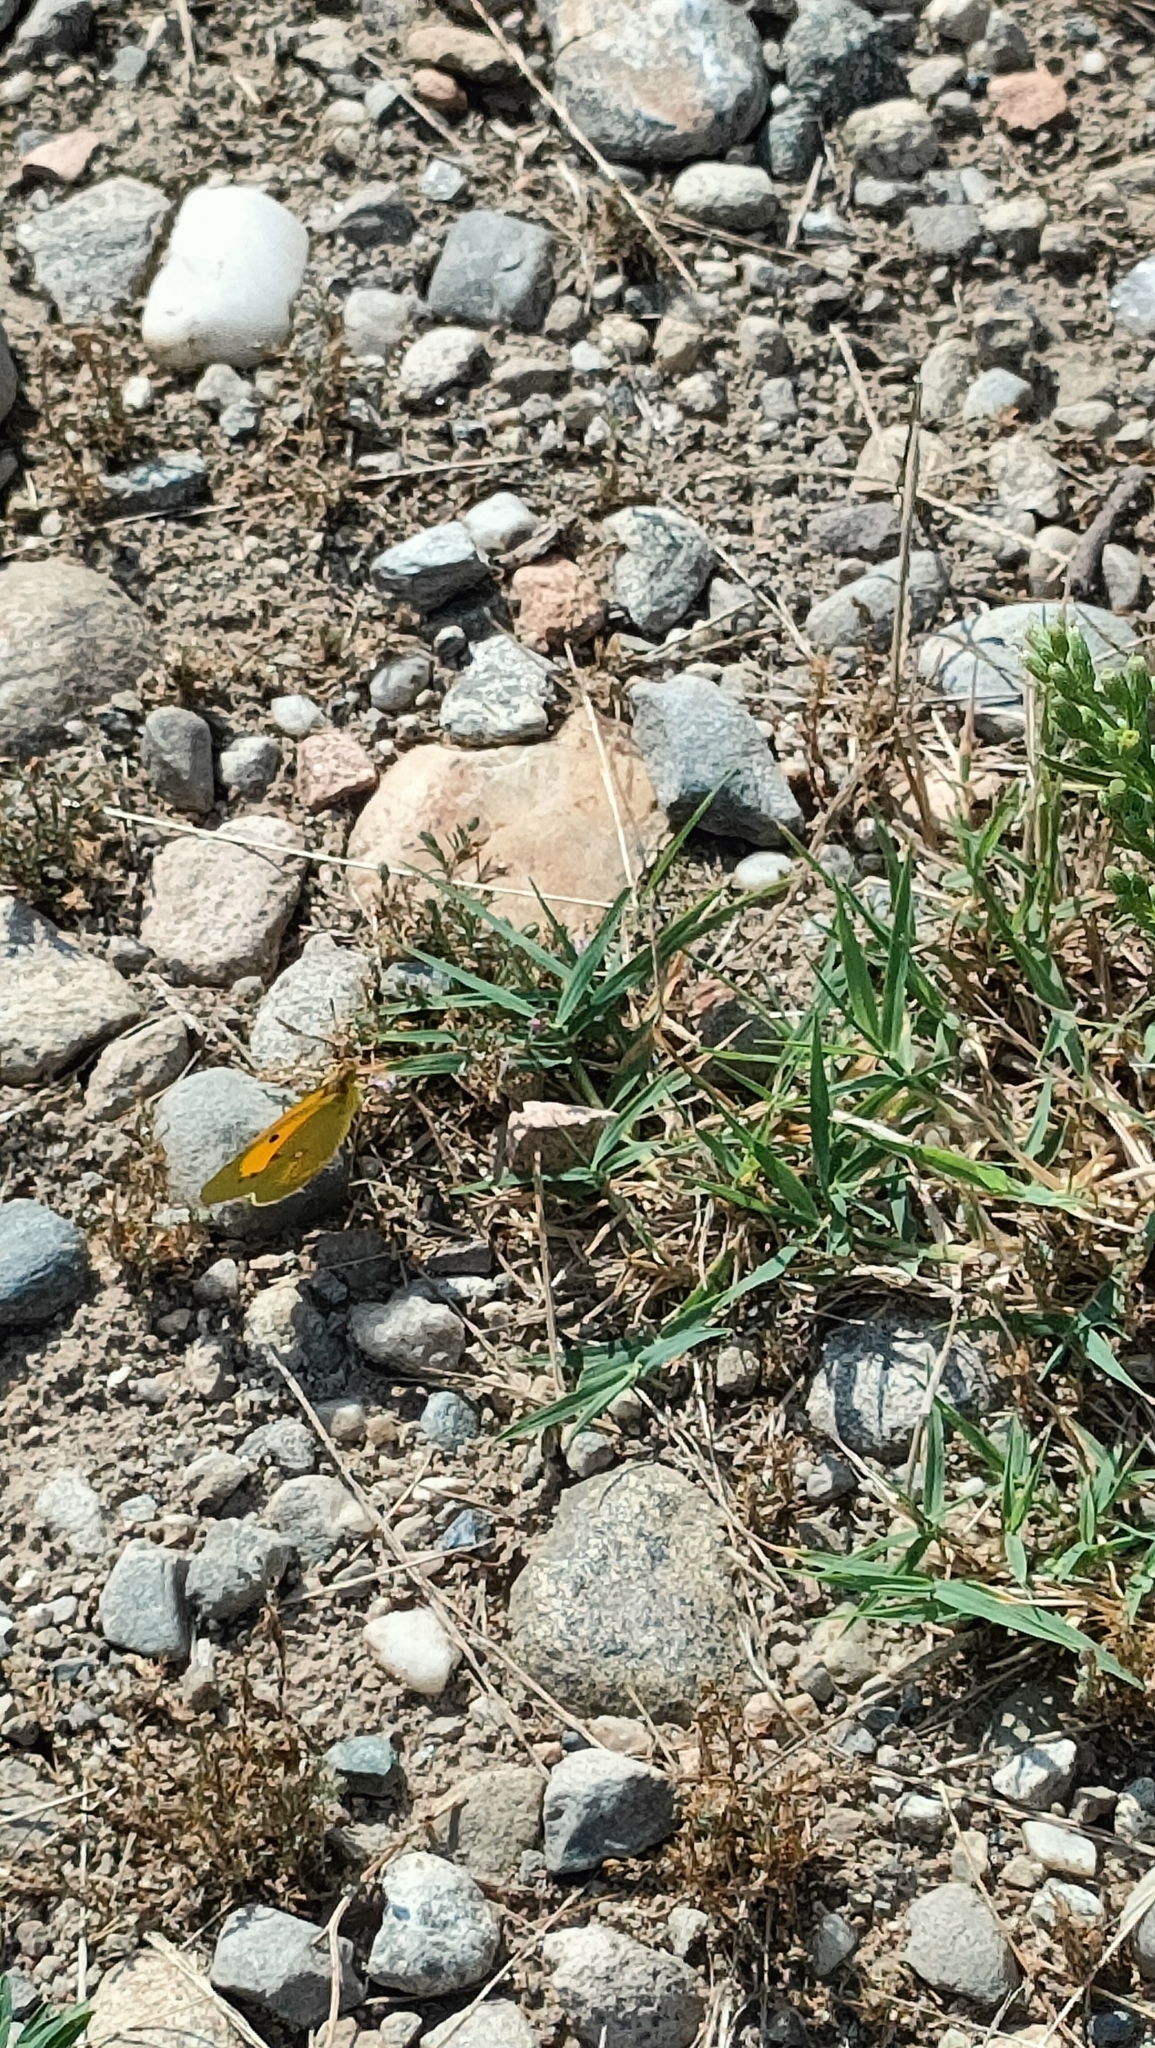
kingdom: Animalia
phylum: Arthropoda
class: Insecta
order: Lepidoptera
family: Pieridae
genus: Colias
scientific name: Colias croceus
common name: Clouded yellow
